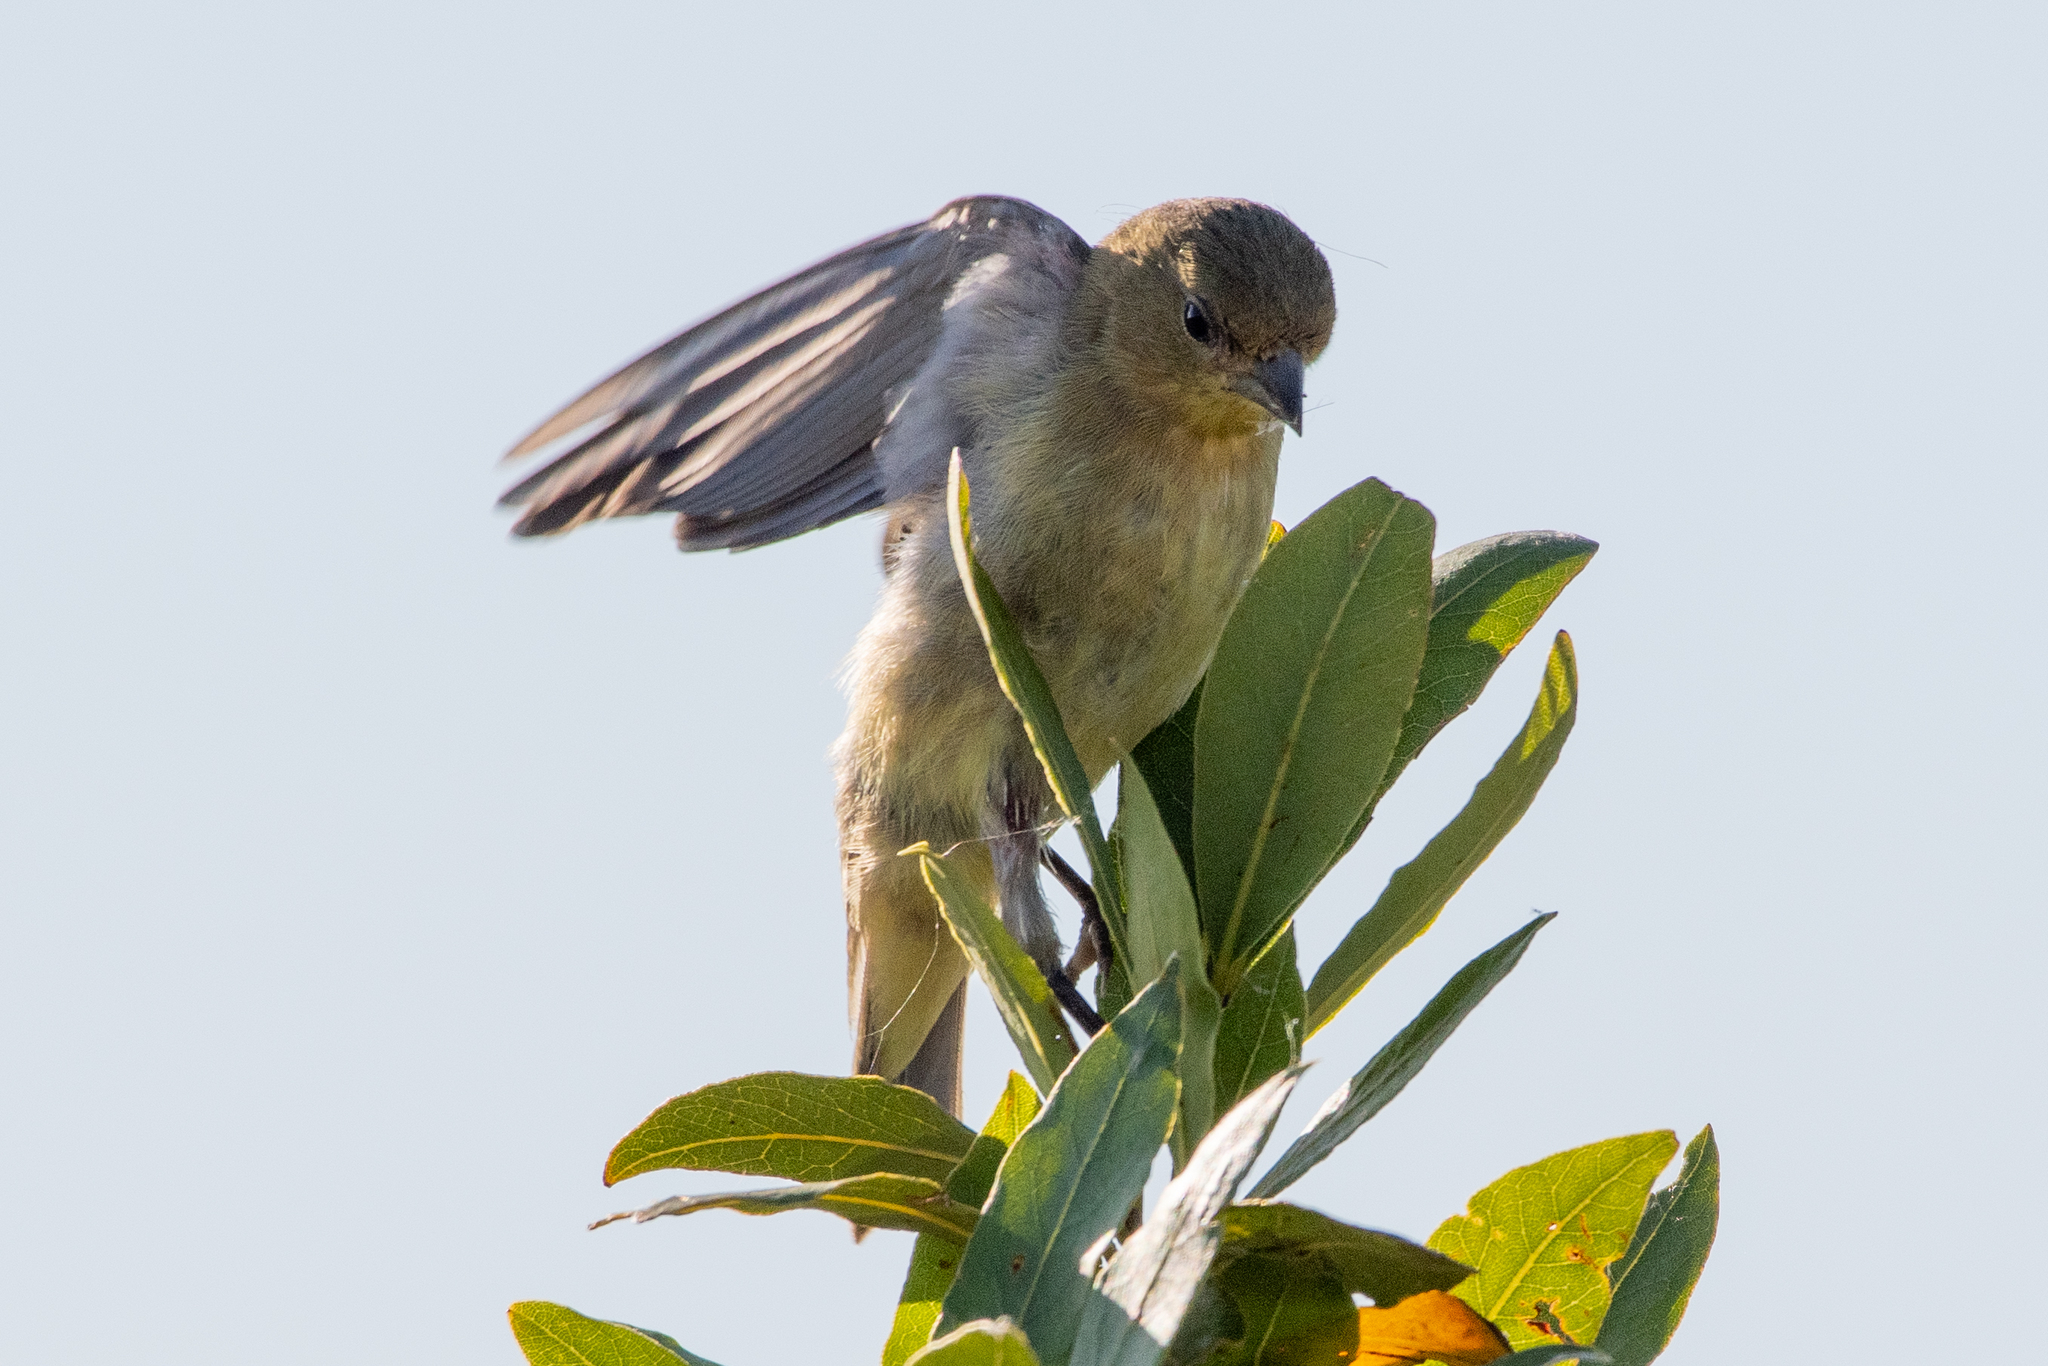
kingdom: Animalia
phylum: Chordata
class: Aves
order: Passeriformes
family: Fringillidae
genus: Spinus
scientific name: Spinus psaltria
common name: Lesser goldfinch
